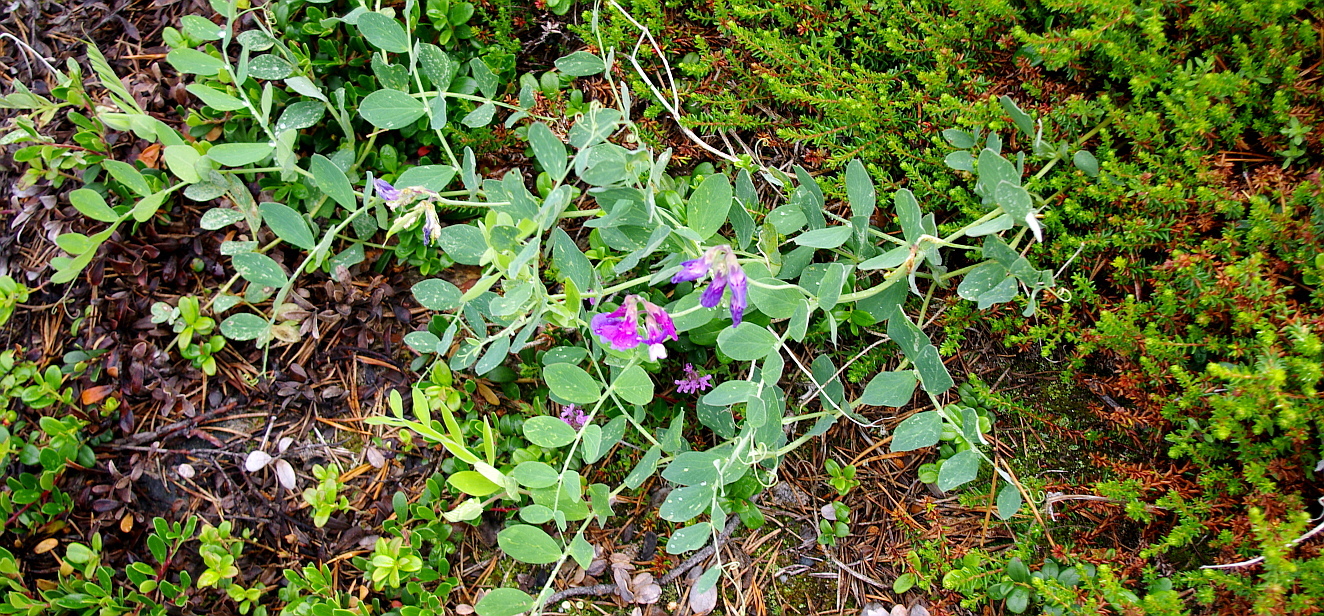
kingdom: Plantae
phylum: Tracheophyta
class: Magnoliopsida
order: Fabales
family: Fabaceae
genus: Lathyrus
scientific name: Lathyrus japonicus
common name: Sea pea
